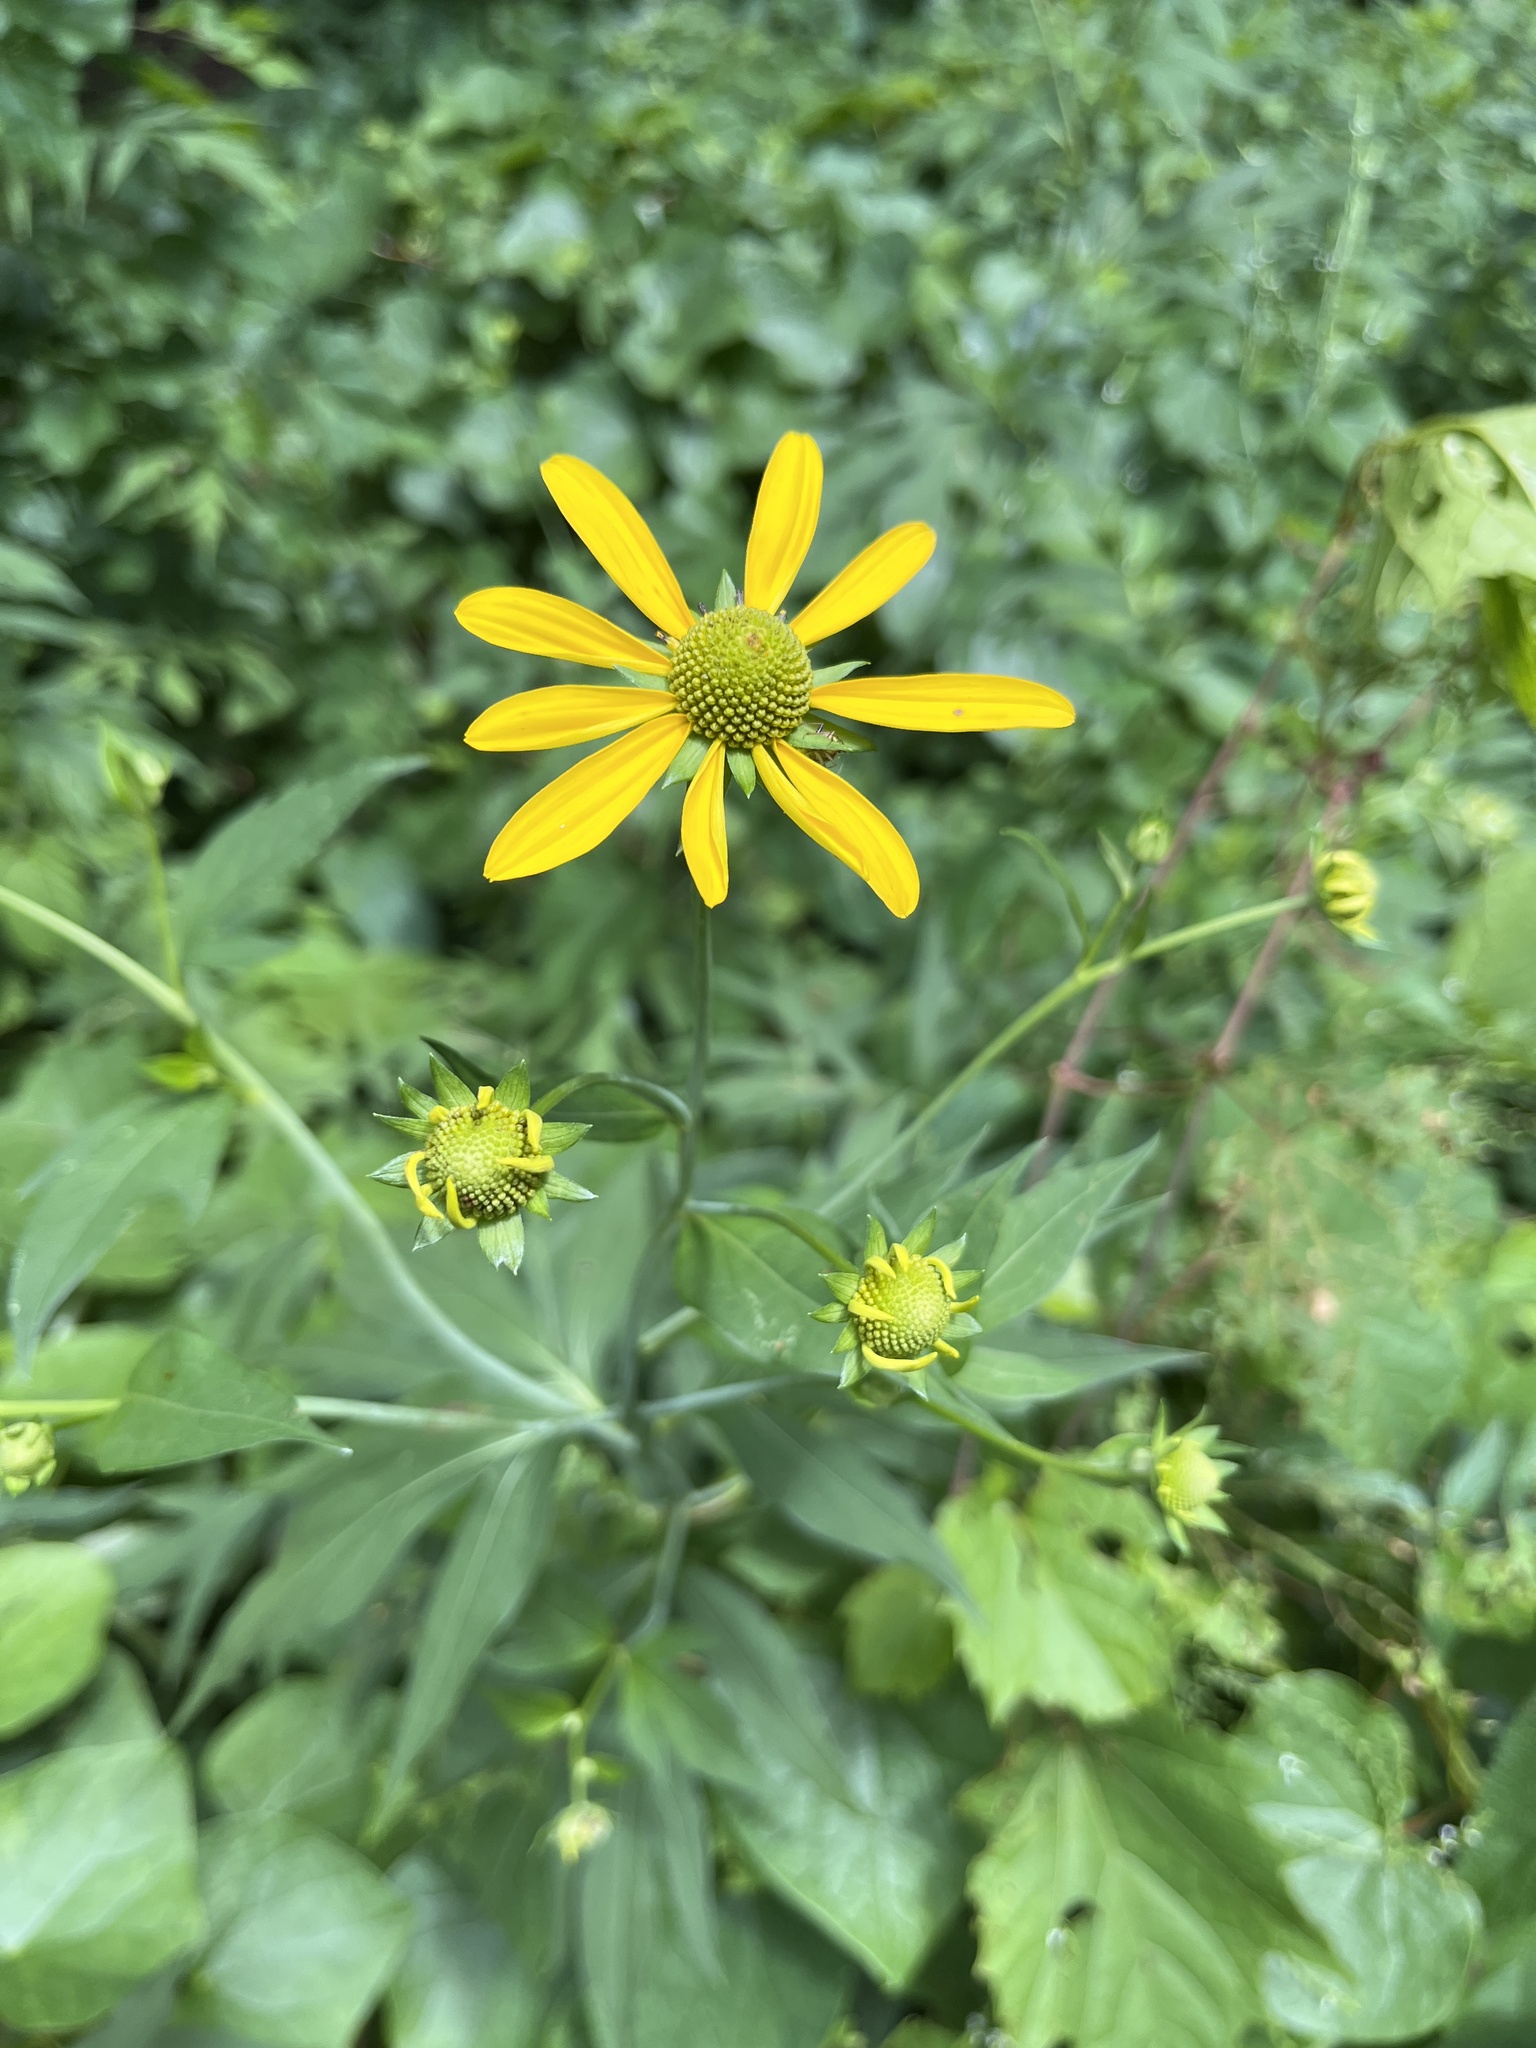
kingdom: Plantae
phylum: Tracheophyta
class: Magnoliopsida
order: Asterales
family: Asteraceae
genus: Rudbeckia
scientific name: Rudbeckia laciniata
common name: Coneflower
